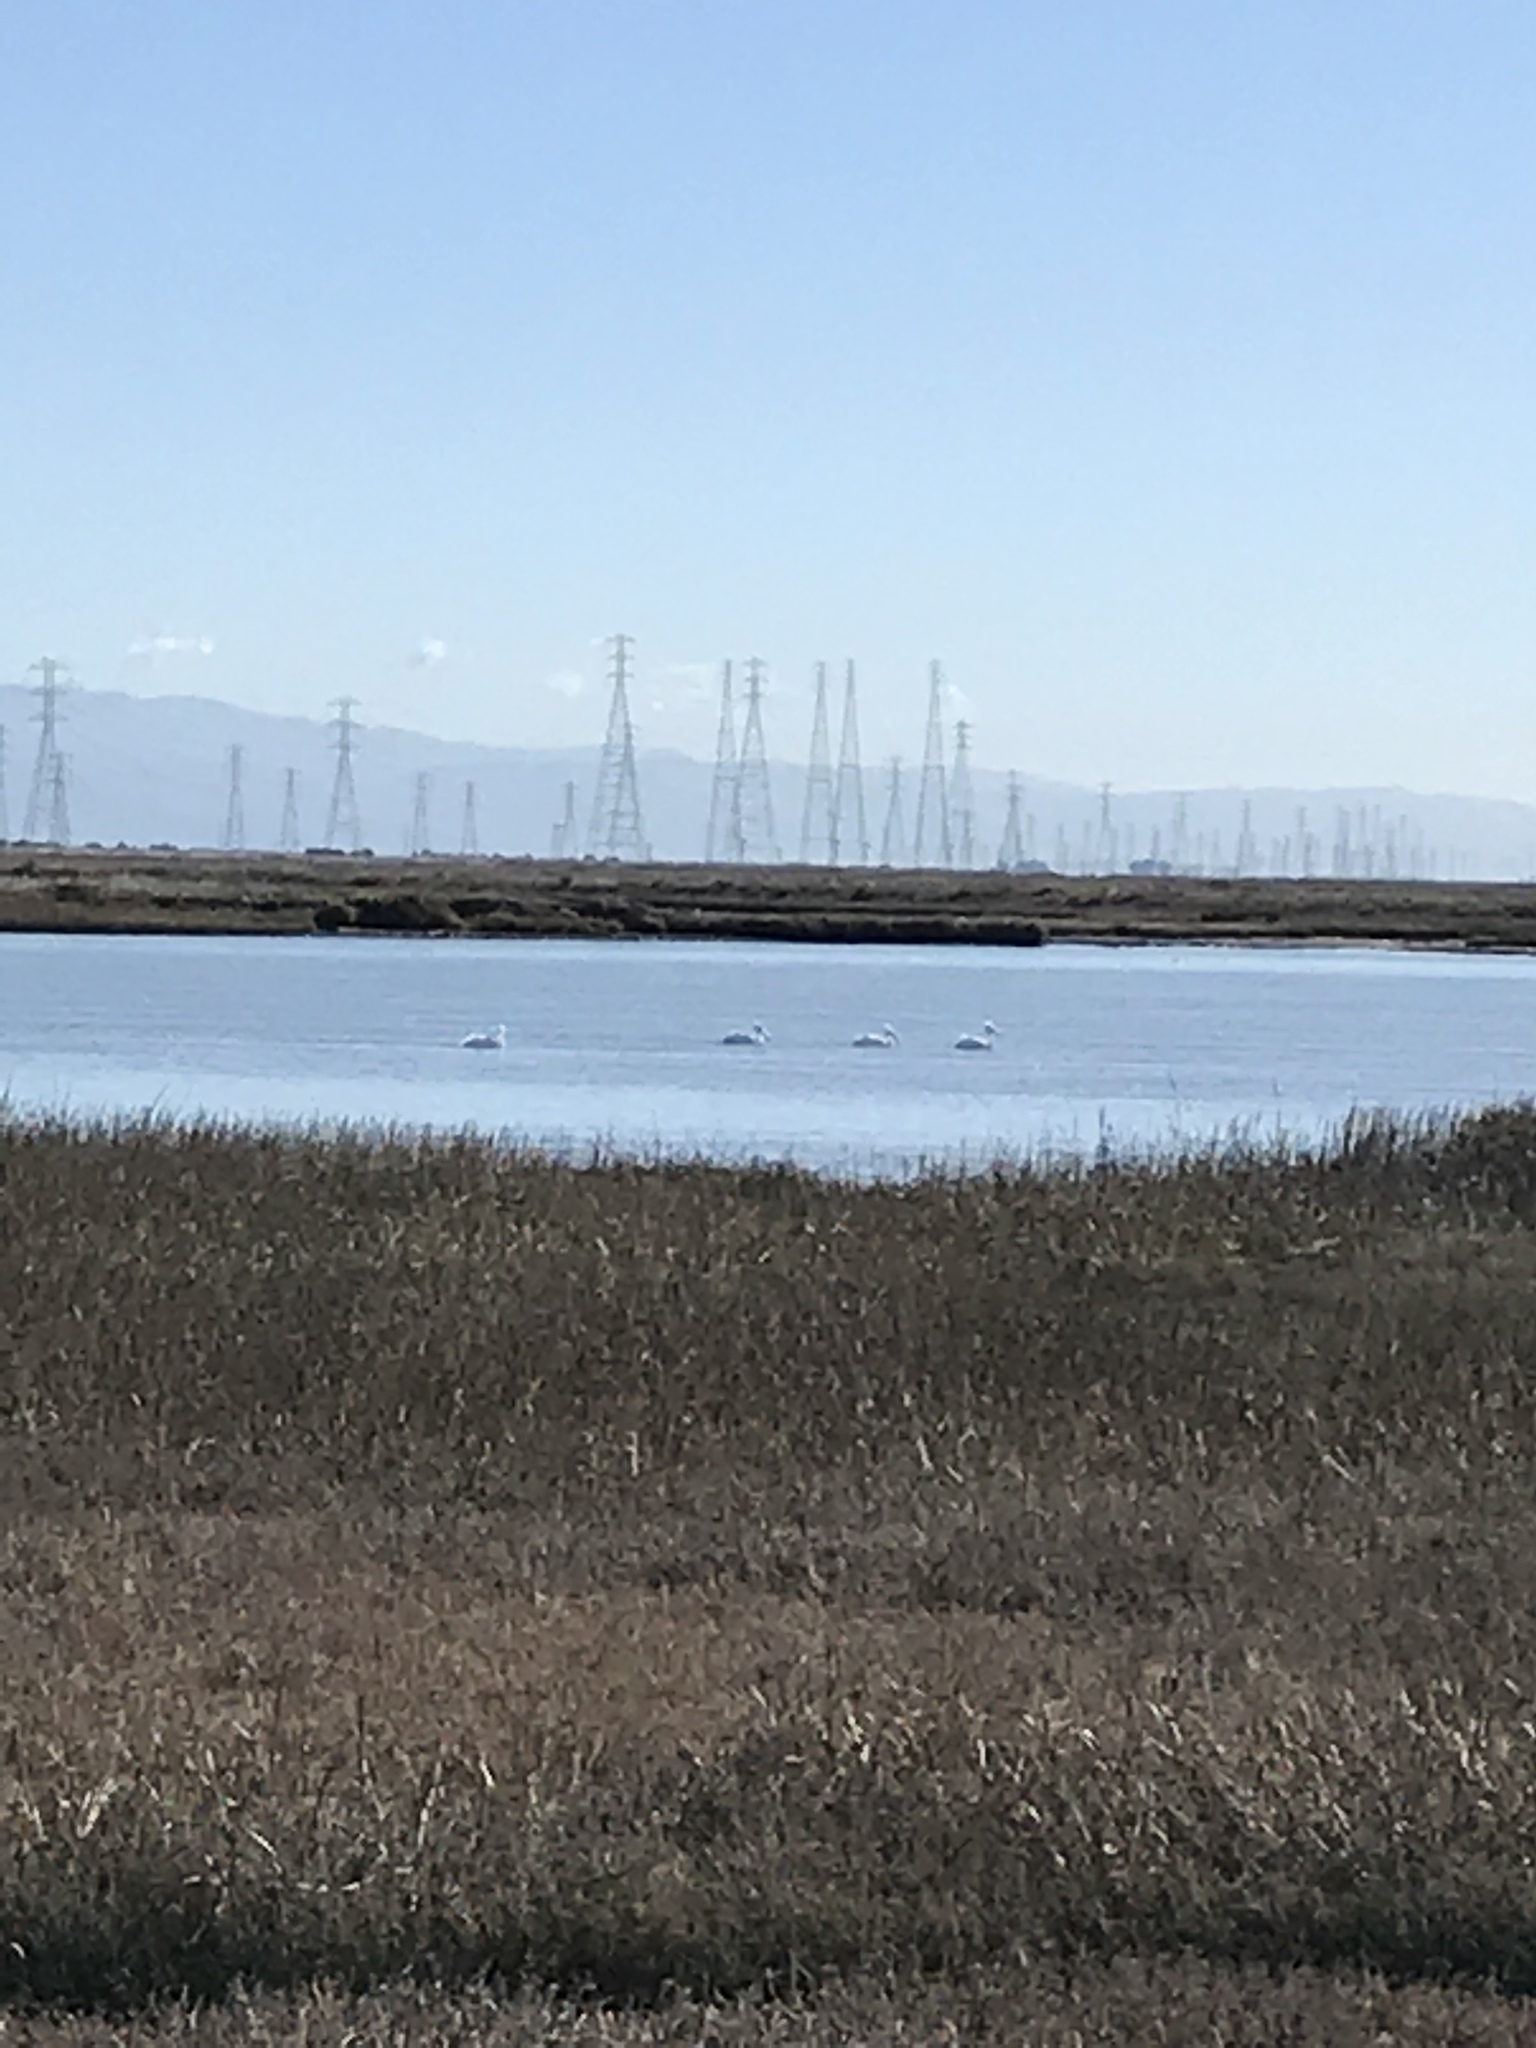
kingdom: Animalia
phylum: Chordata
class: Aves
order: Pelecaniformes
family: Pelecanidae
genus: Pelecanus
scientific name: Pelecanus erythrorhynchos
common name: American white pelican
